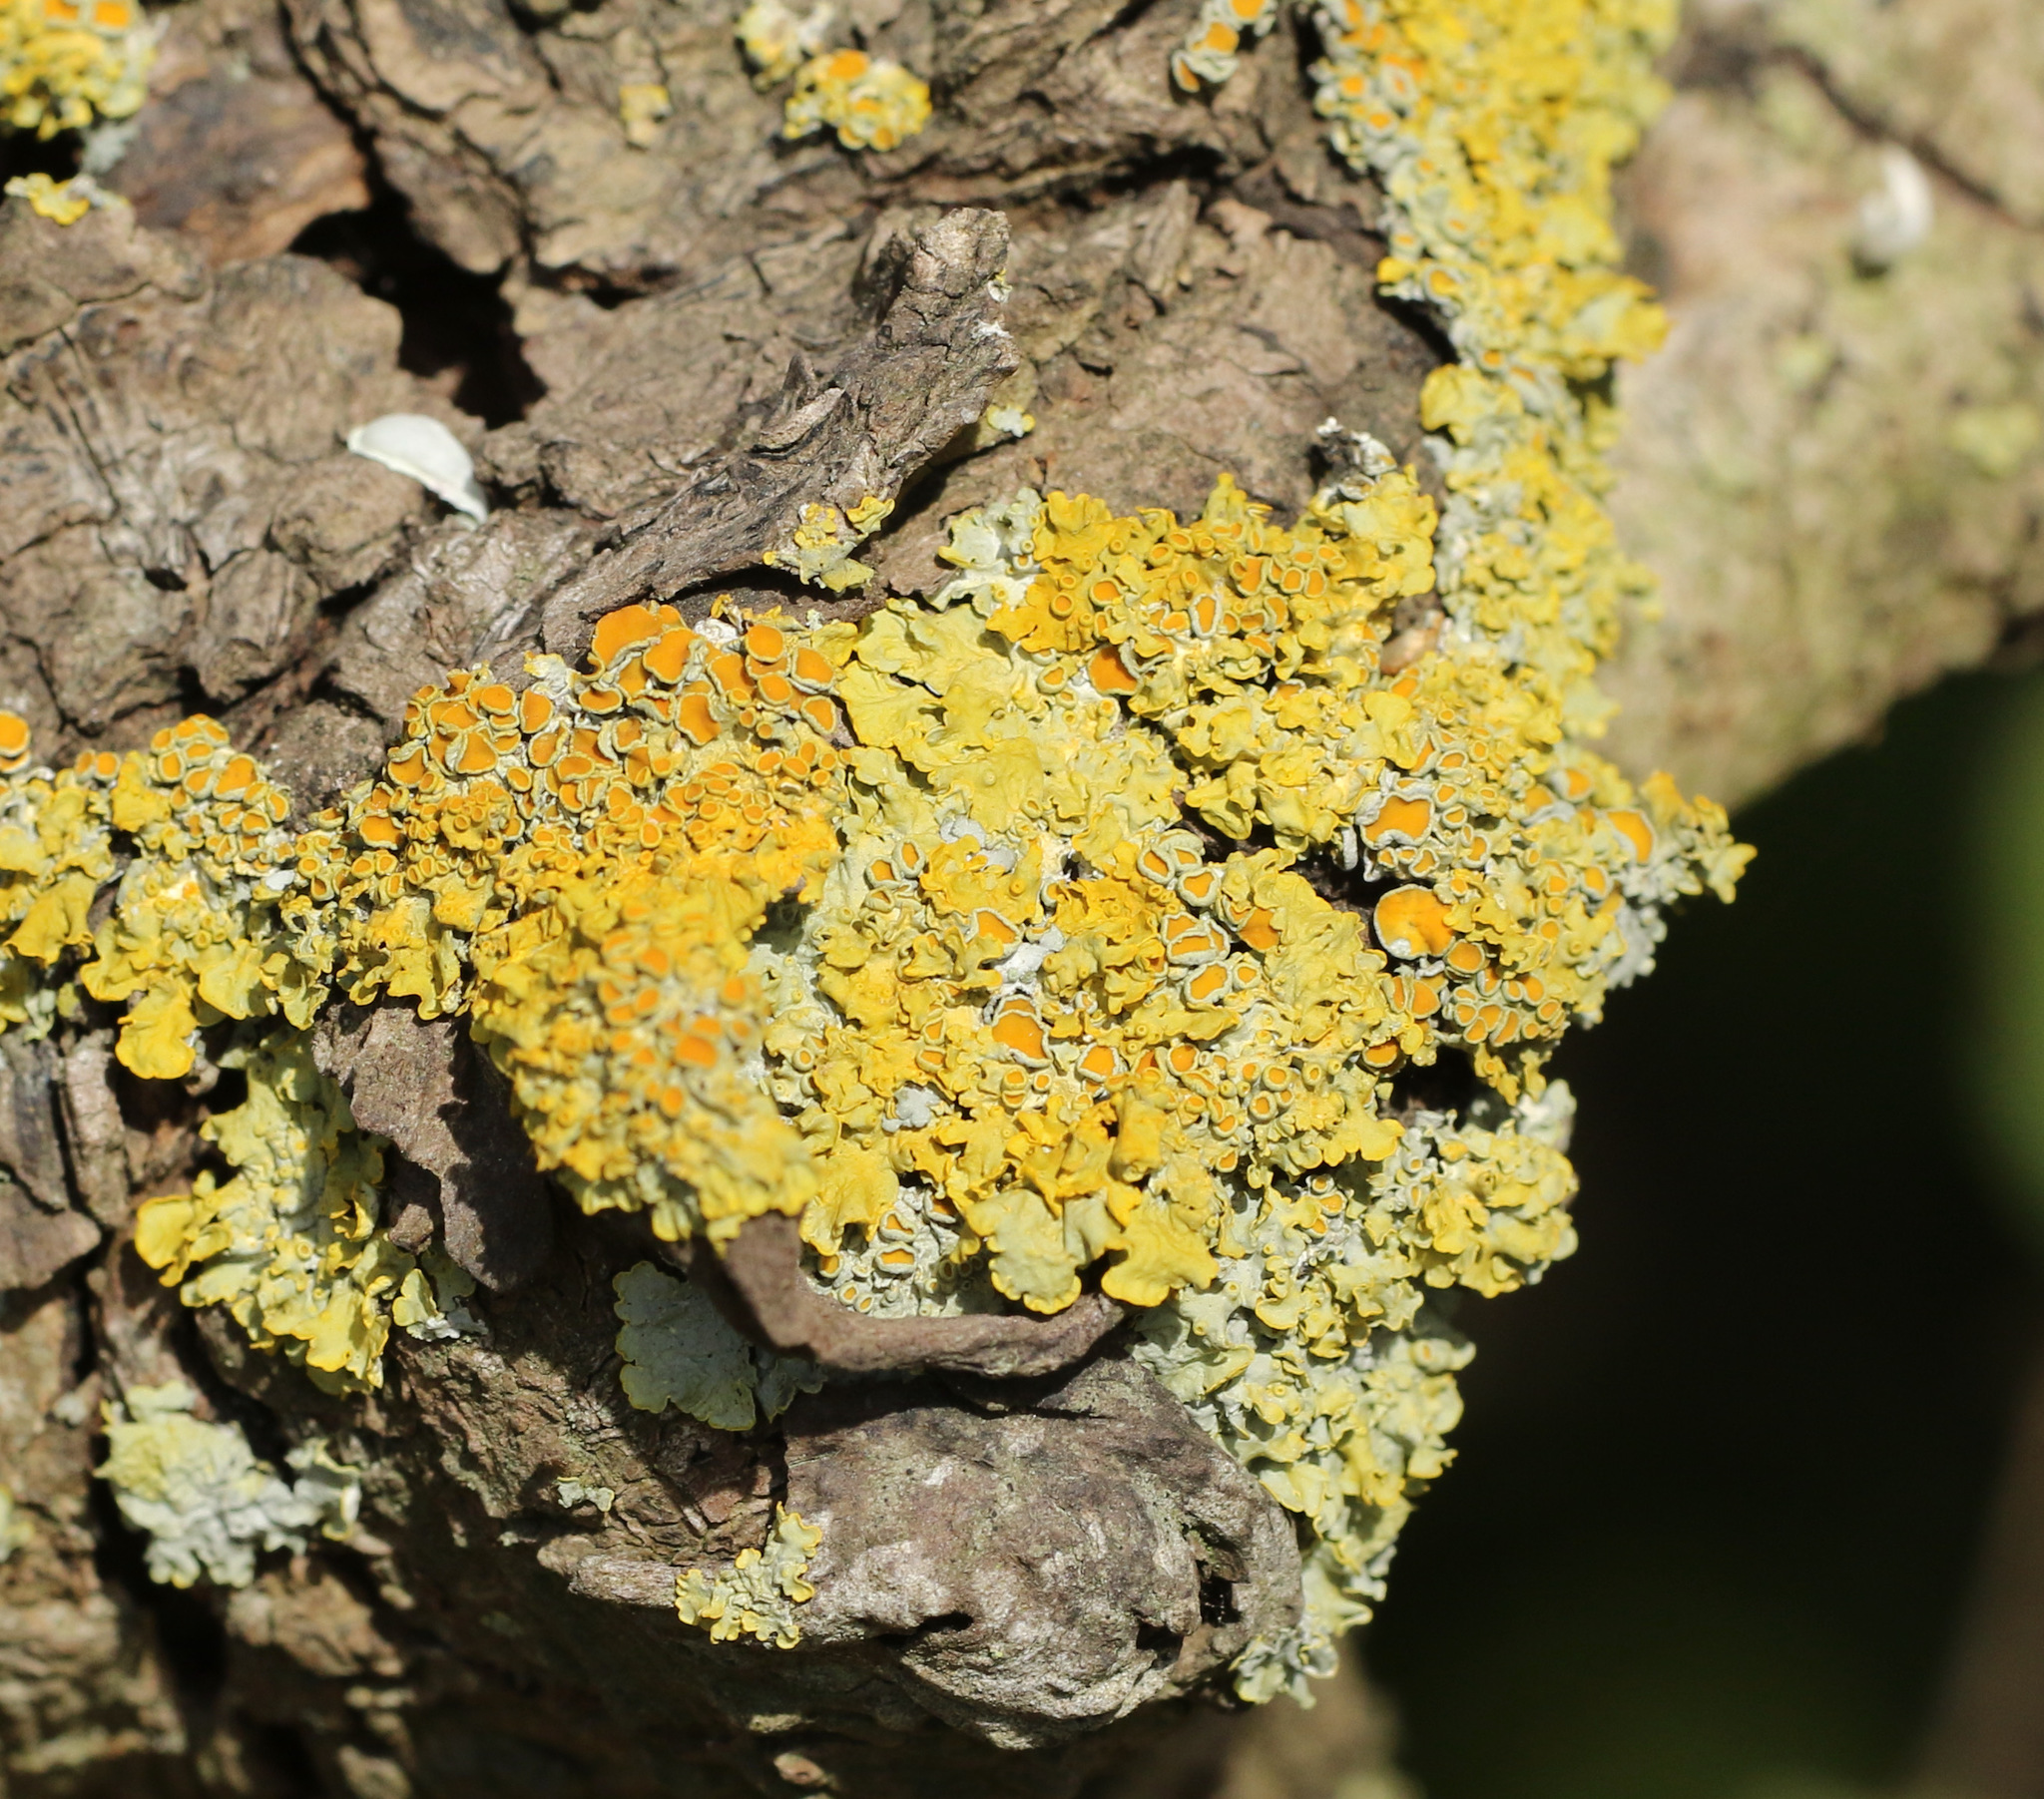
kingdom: Fungi
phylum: Ascomycota
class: Lecanoromycetes
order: Teloschistales
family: Teloschistaceae
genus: Xanthoria
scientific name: Xanthoria parietina
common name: Common orange lichen
